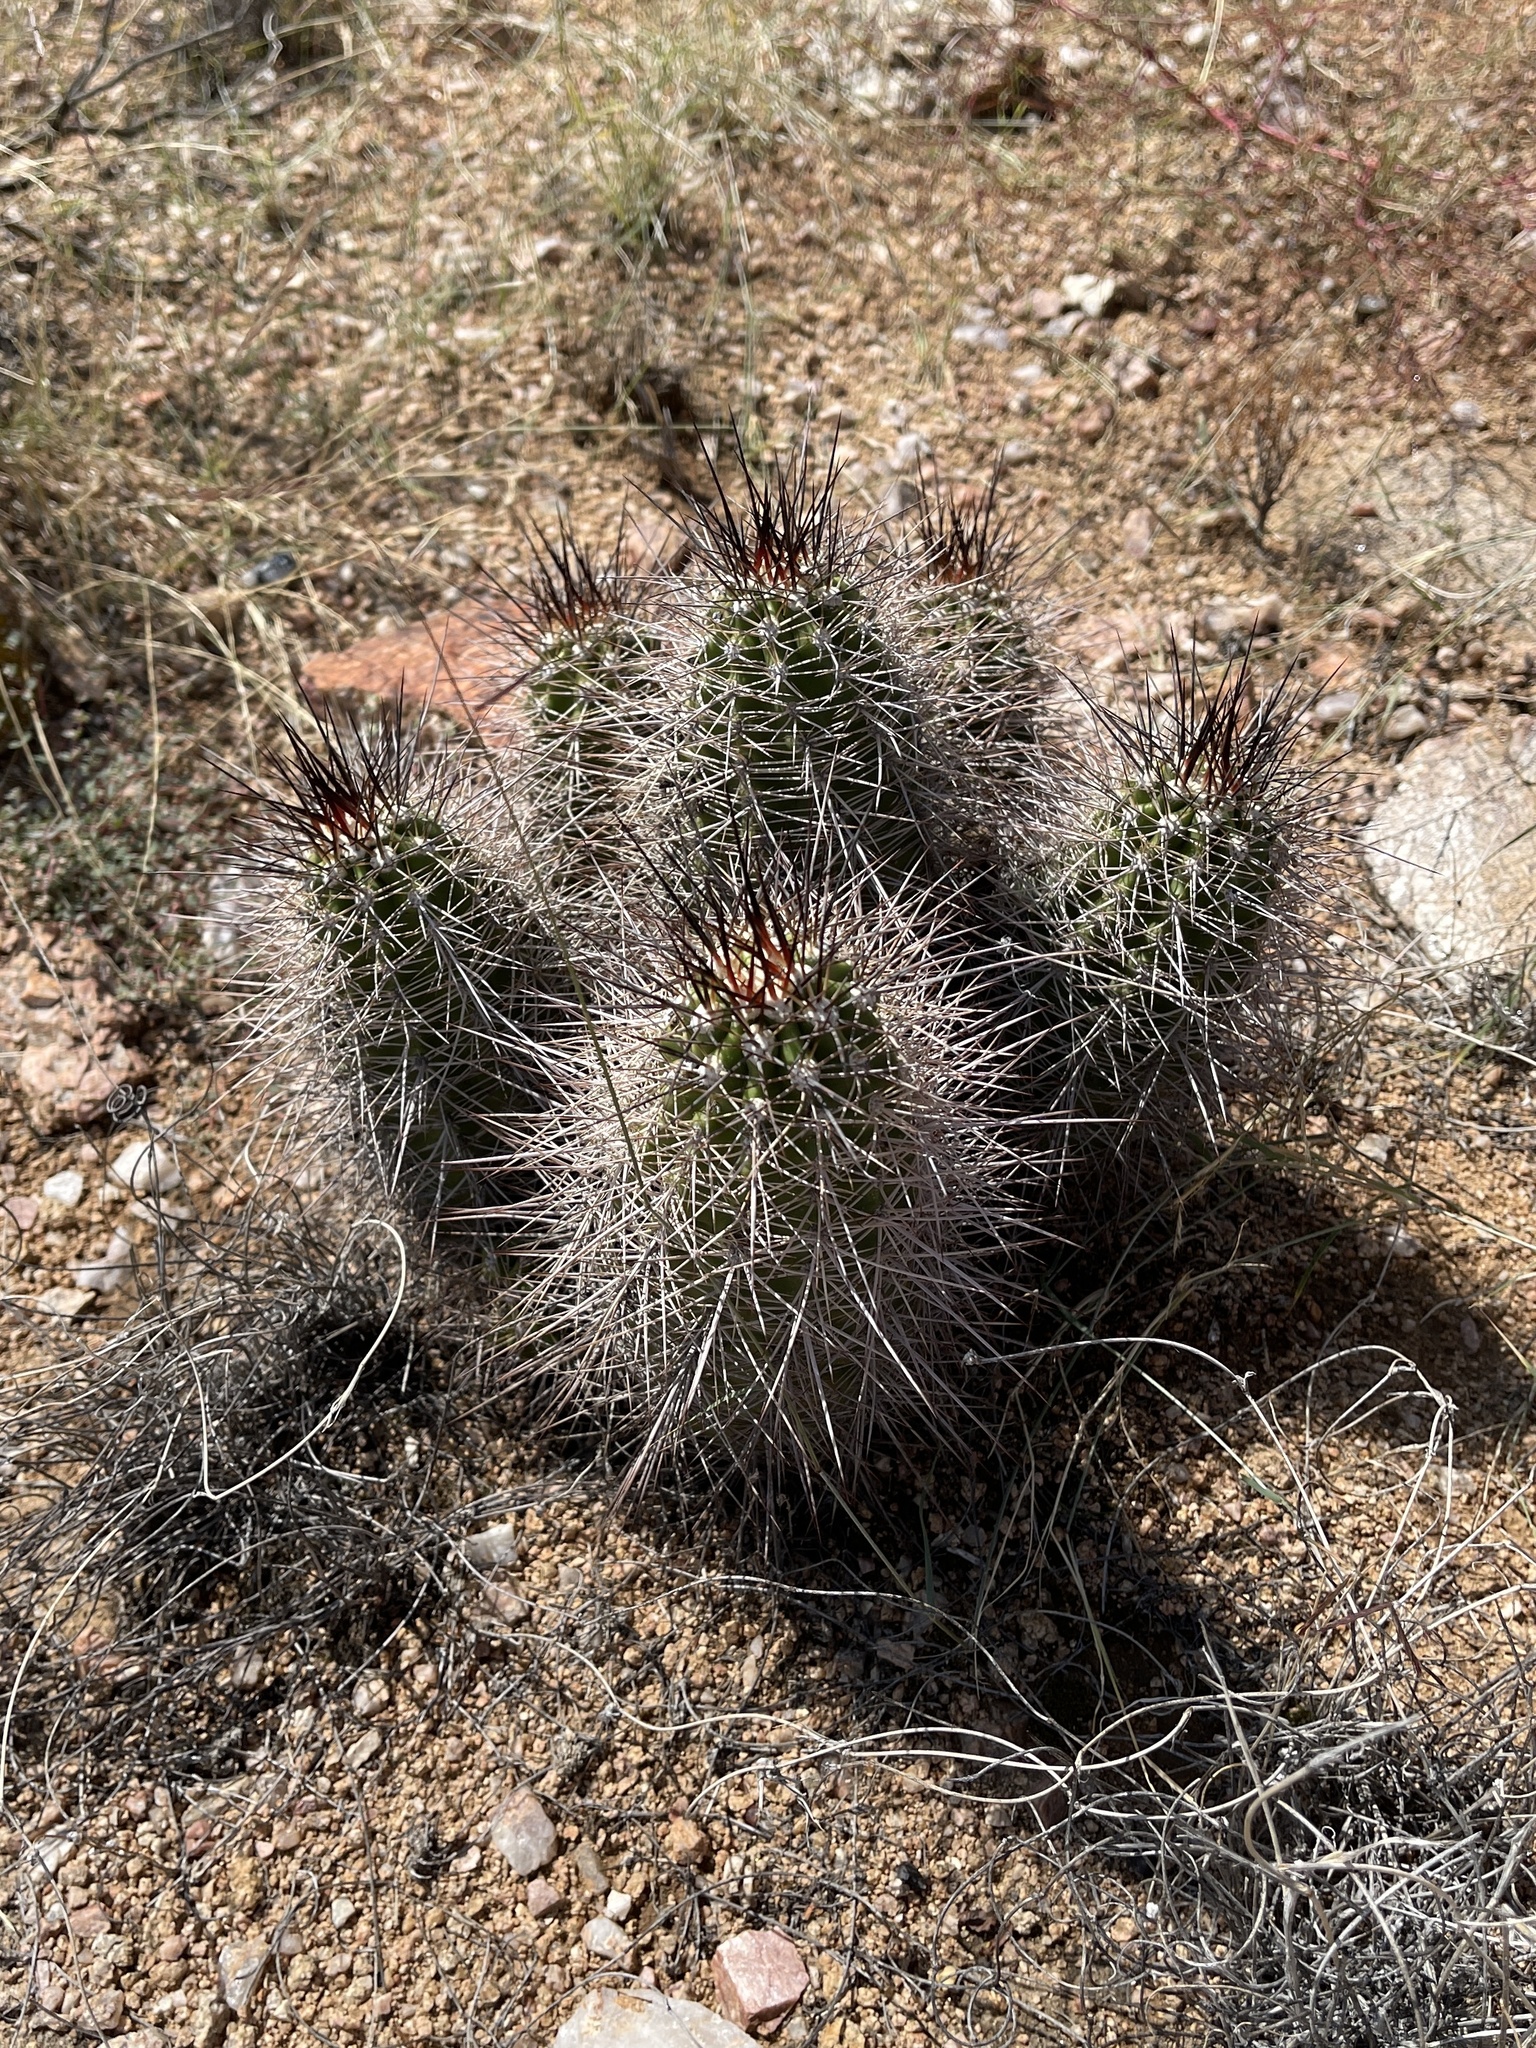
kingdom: Plantae
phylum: Tracheophyta
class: Magnoliopsida
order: Caryophyllales
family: Cactaceae
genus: Echinocereus
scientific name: Echinocereus bakeri
